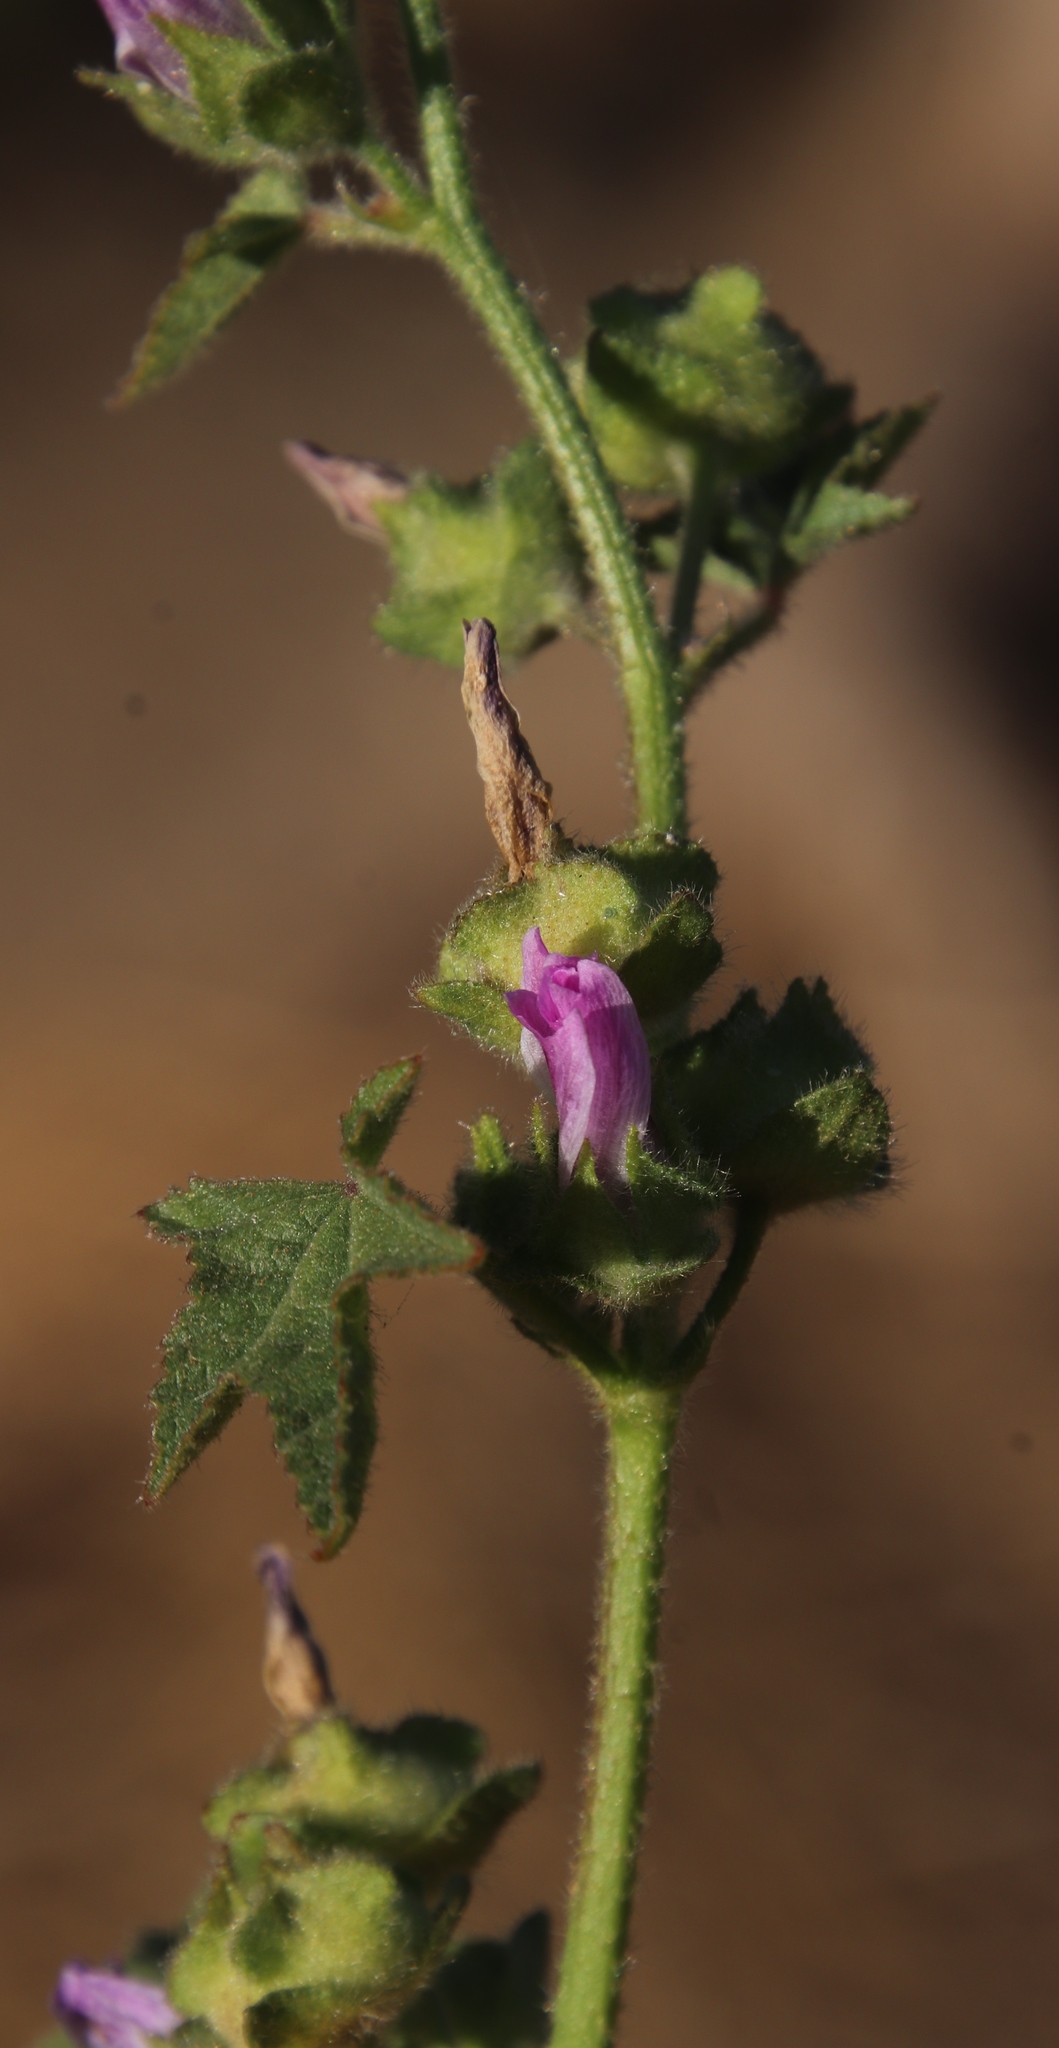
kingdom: Plantae
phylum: Tracheophyta
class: Magnoliopsida
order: Malvales
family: Malvaceae
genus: Malva
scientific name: Malva sylvestris
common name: Common mallow
